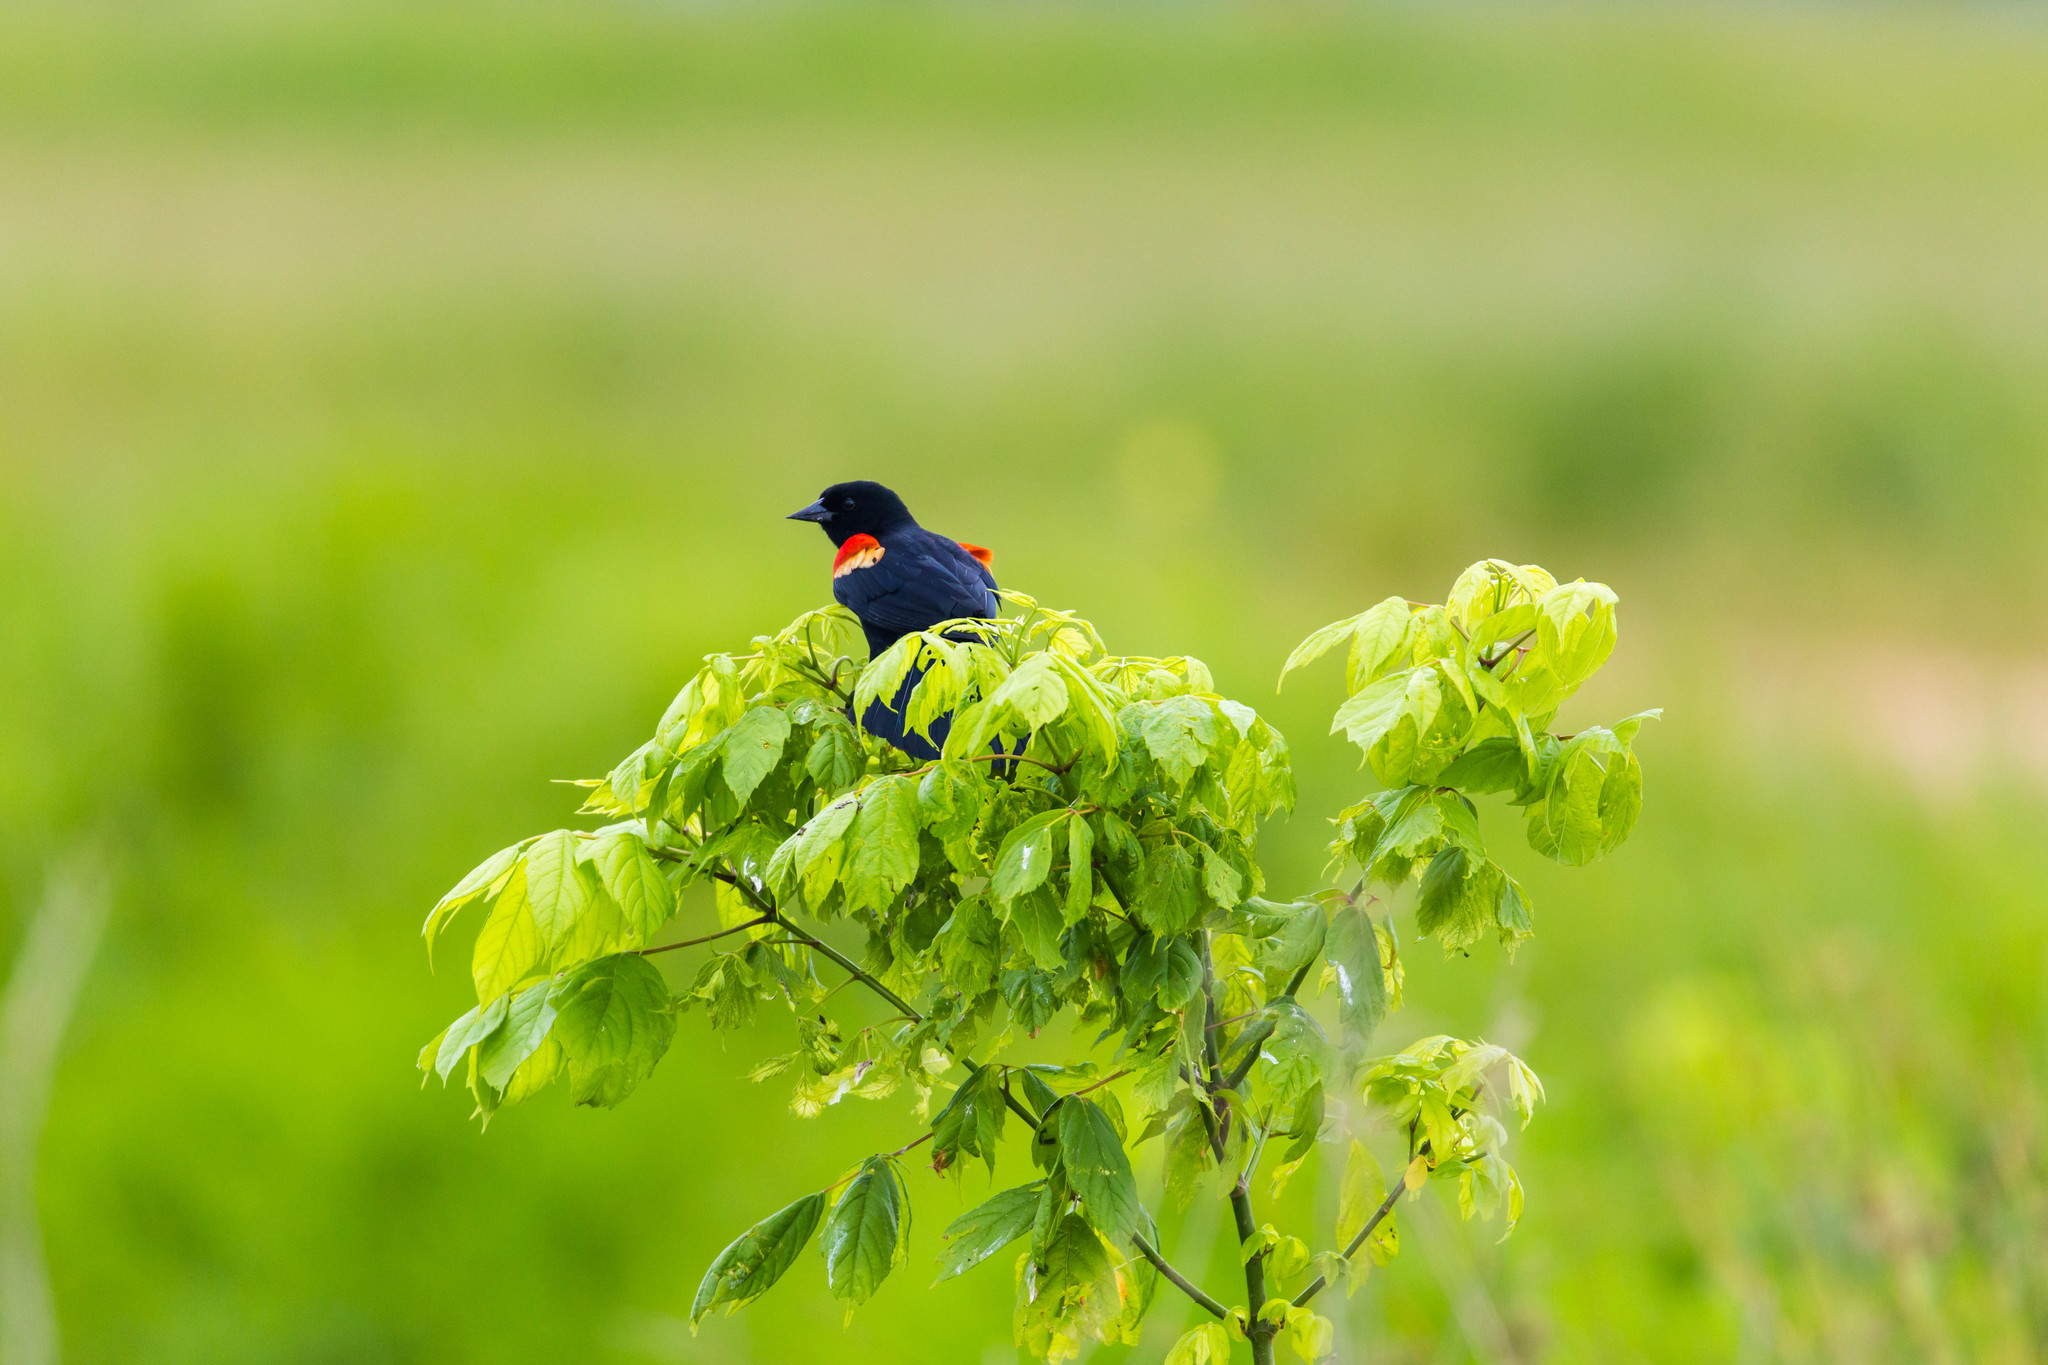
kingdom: Animalia
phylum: Chordata
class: Aves
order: Passeriformes
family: Icteridae
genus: Agelaius
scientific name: Agelaius phoeniceus
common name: Red-winged blackbird
